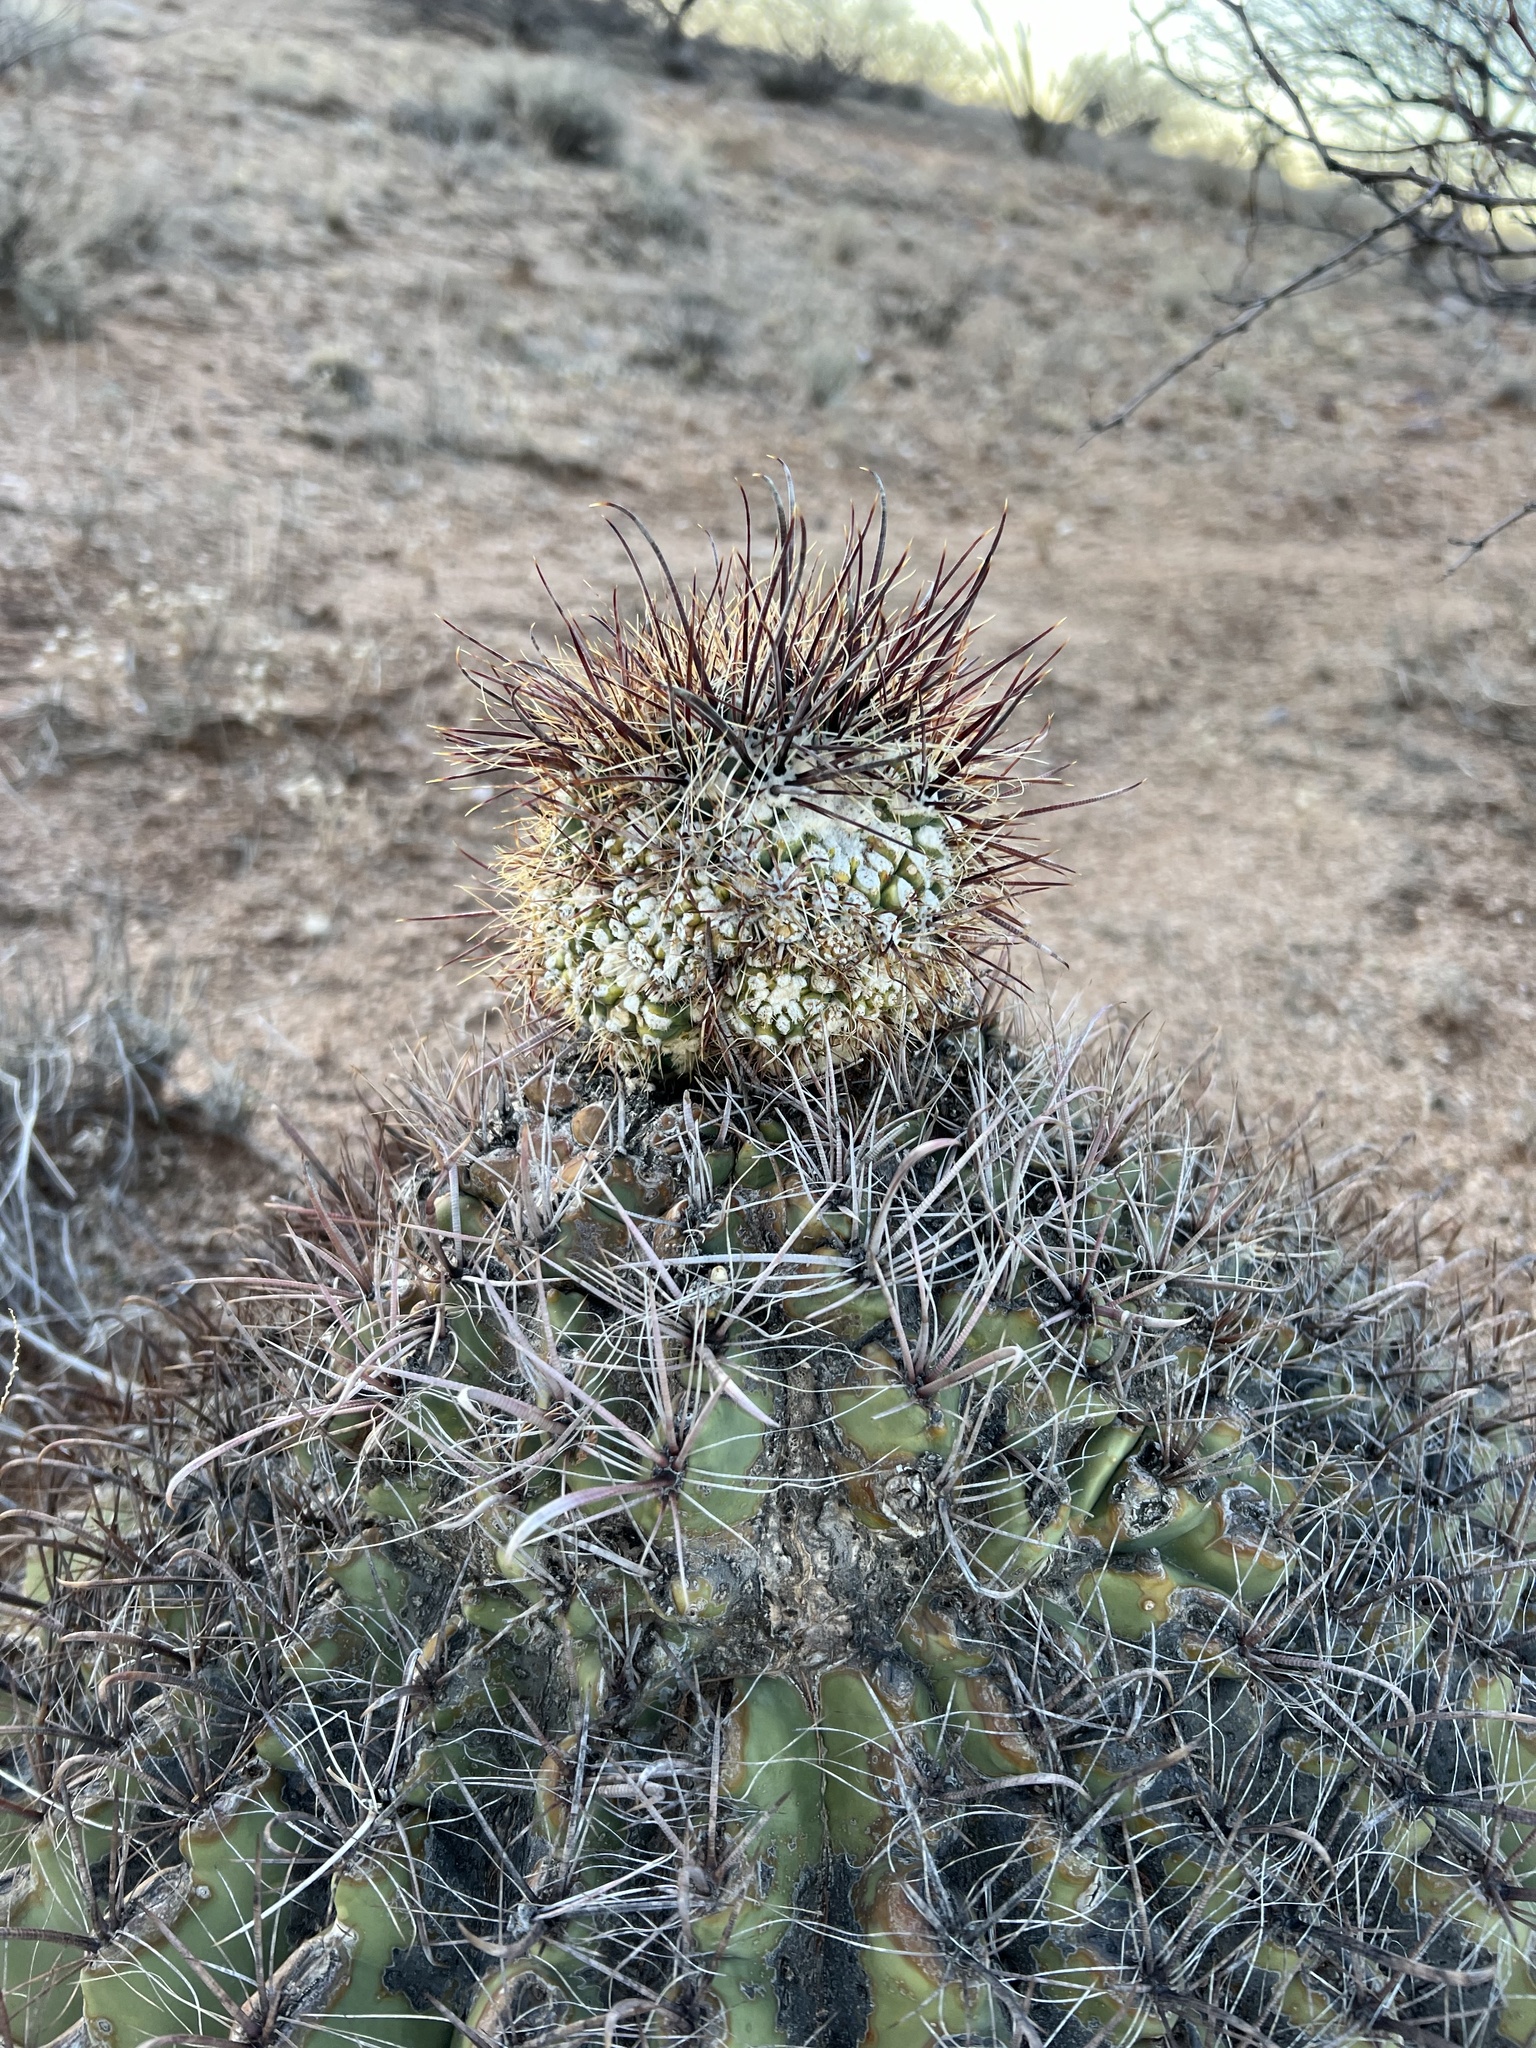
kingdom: Plantae
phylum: Tracheophyta
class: Magnoliopsida
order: Caryophyllales
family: Cactaceae
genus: Ferocactus
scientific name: Ferocactus wislizeni
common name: Candy barrel cactus
